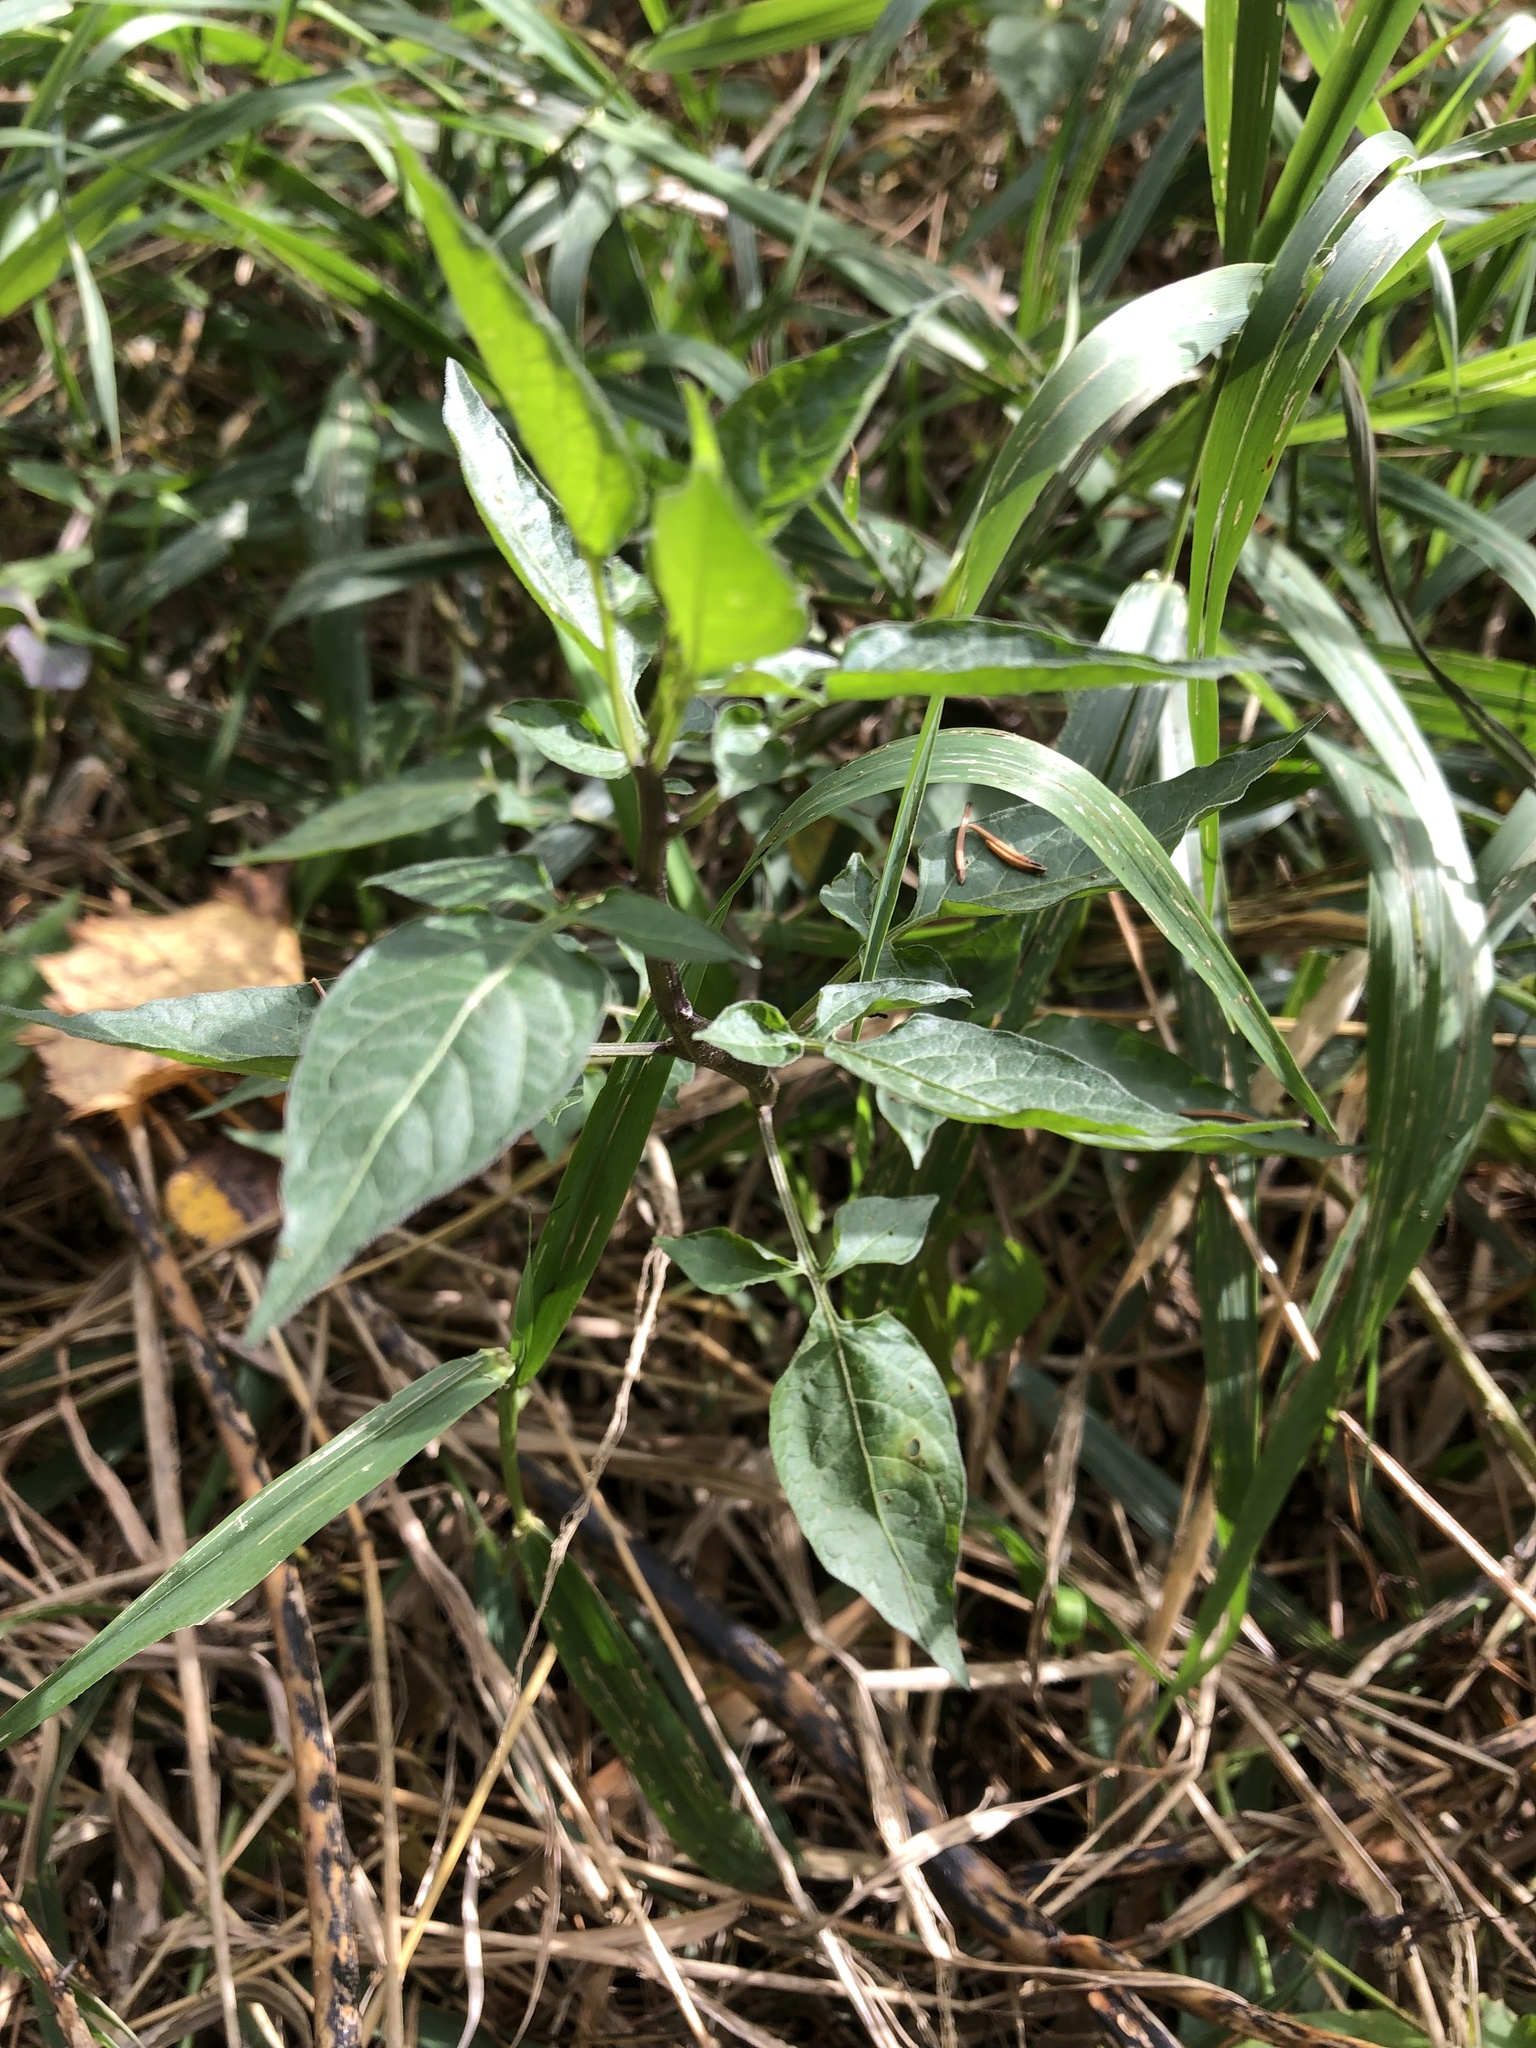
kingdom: Plantae
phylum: Tracheophyta
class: Magnoliopsida
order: Solanales
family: Solanaceae
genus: Solanum
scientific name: Solanum dulcamara
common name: Climbing nightshade
